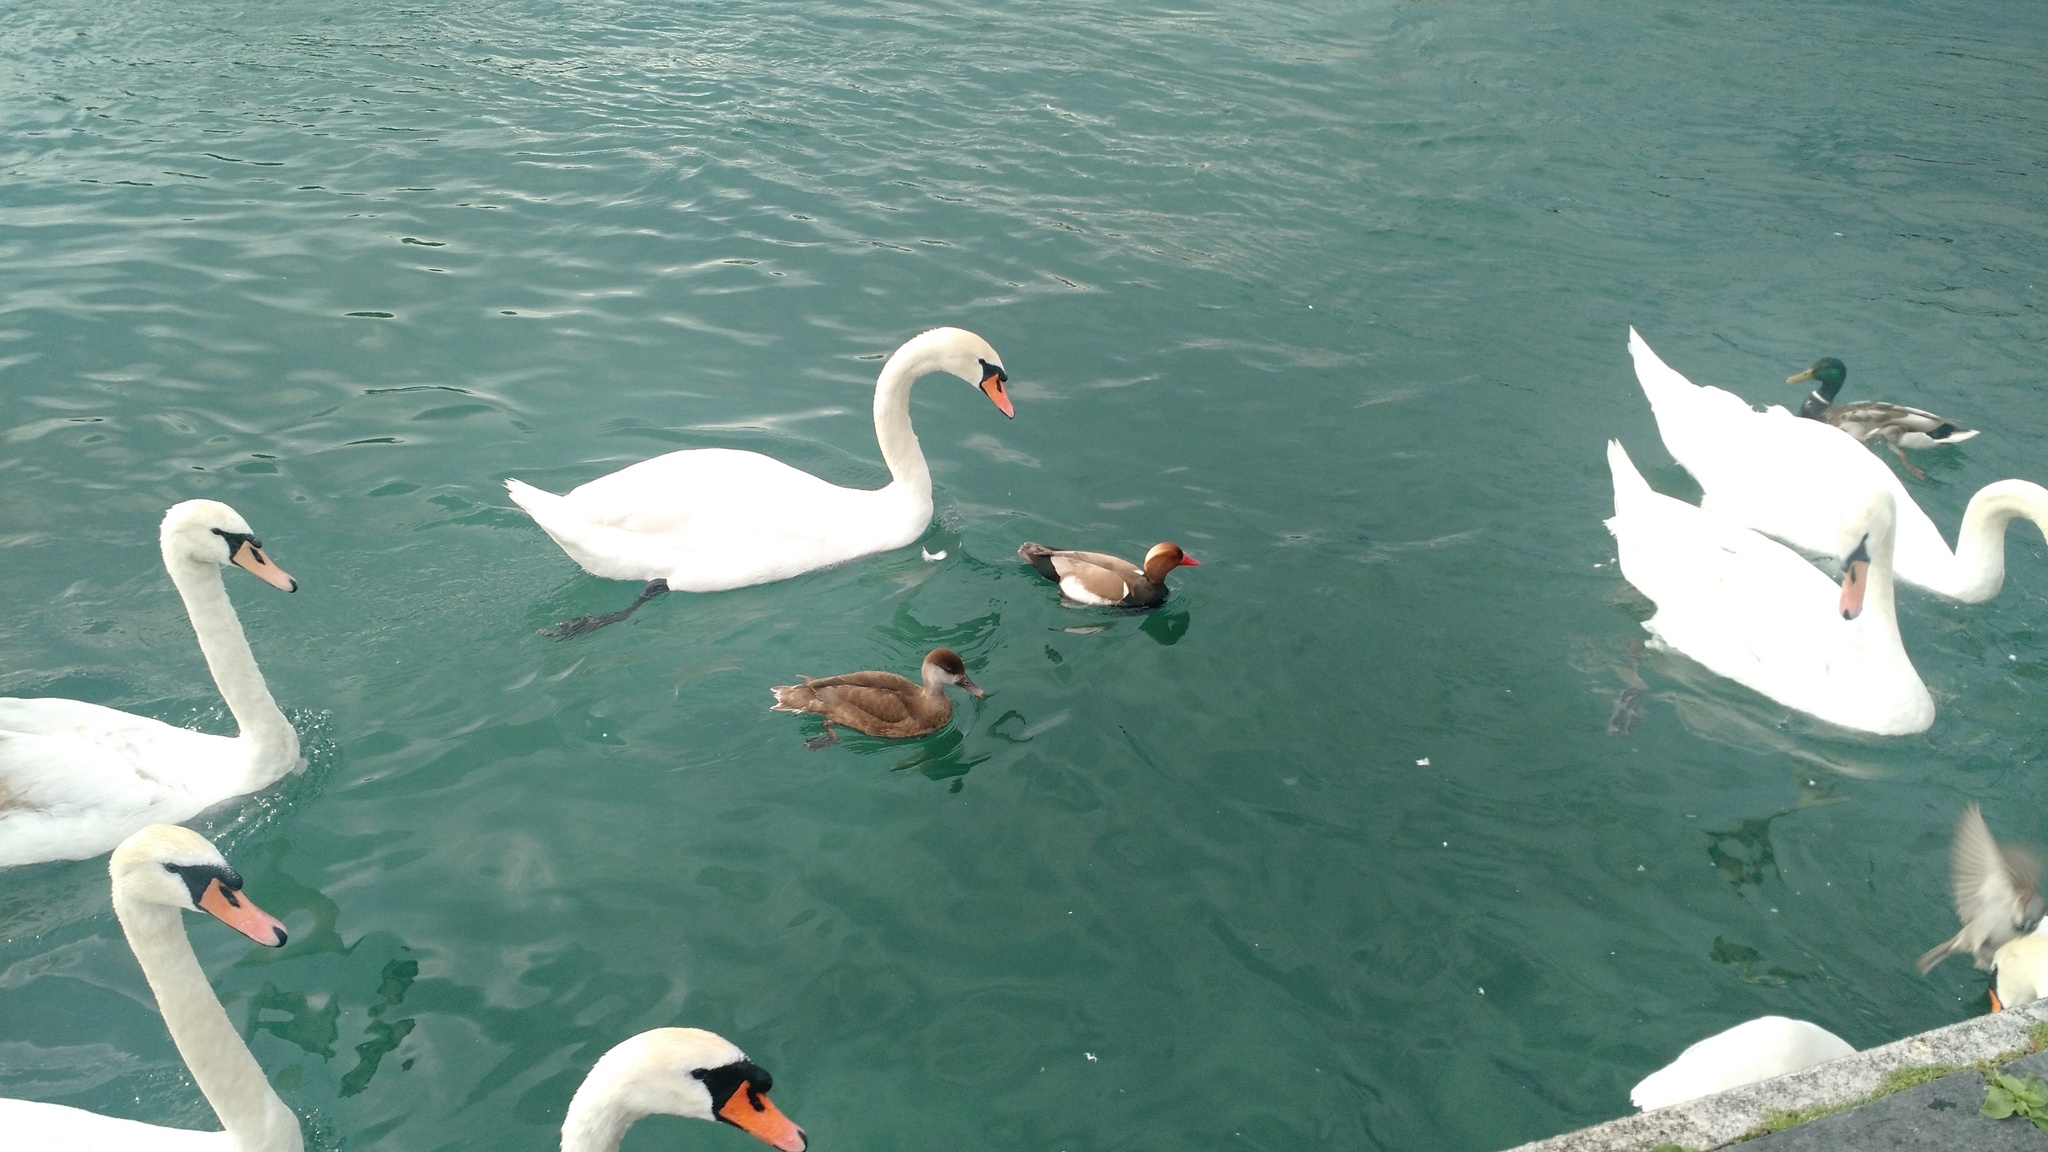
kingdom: Animalia
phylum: Chordata
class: Aves
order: Anseriformes
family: Anatidae
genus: Netta
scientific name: Netta rufina
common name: Red-crested pochard
